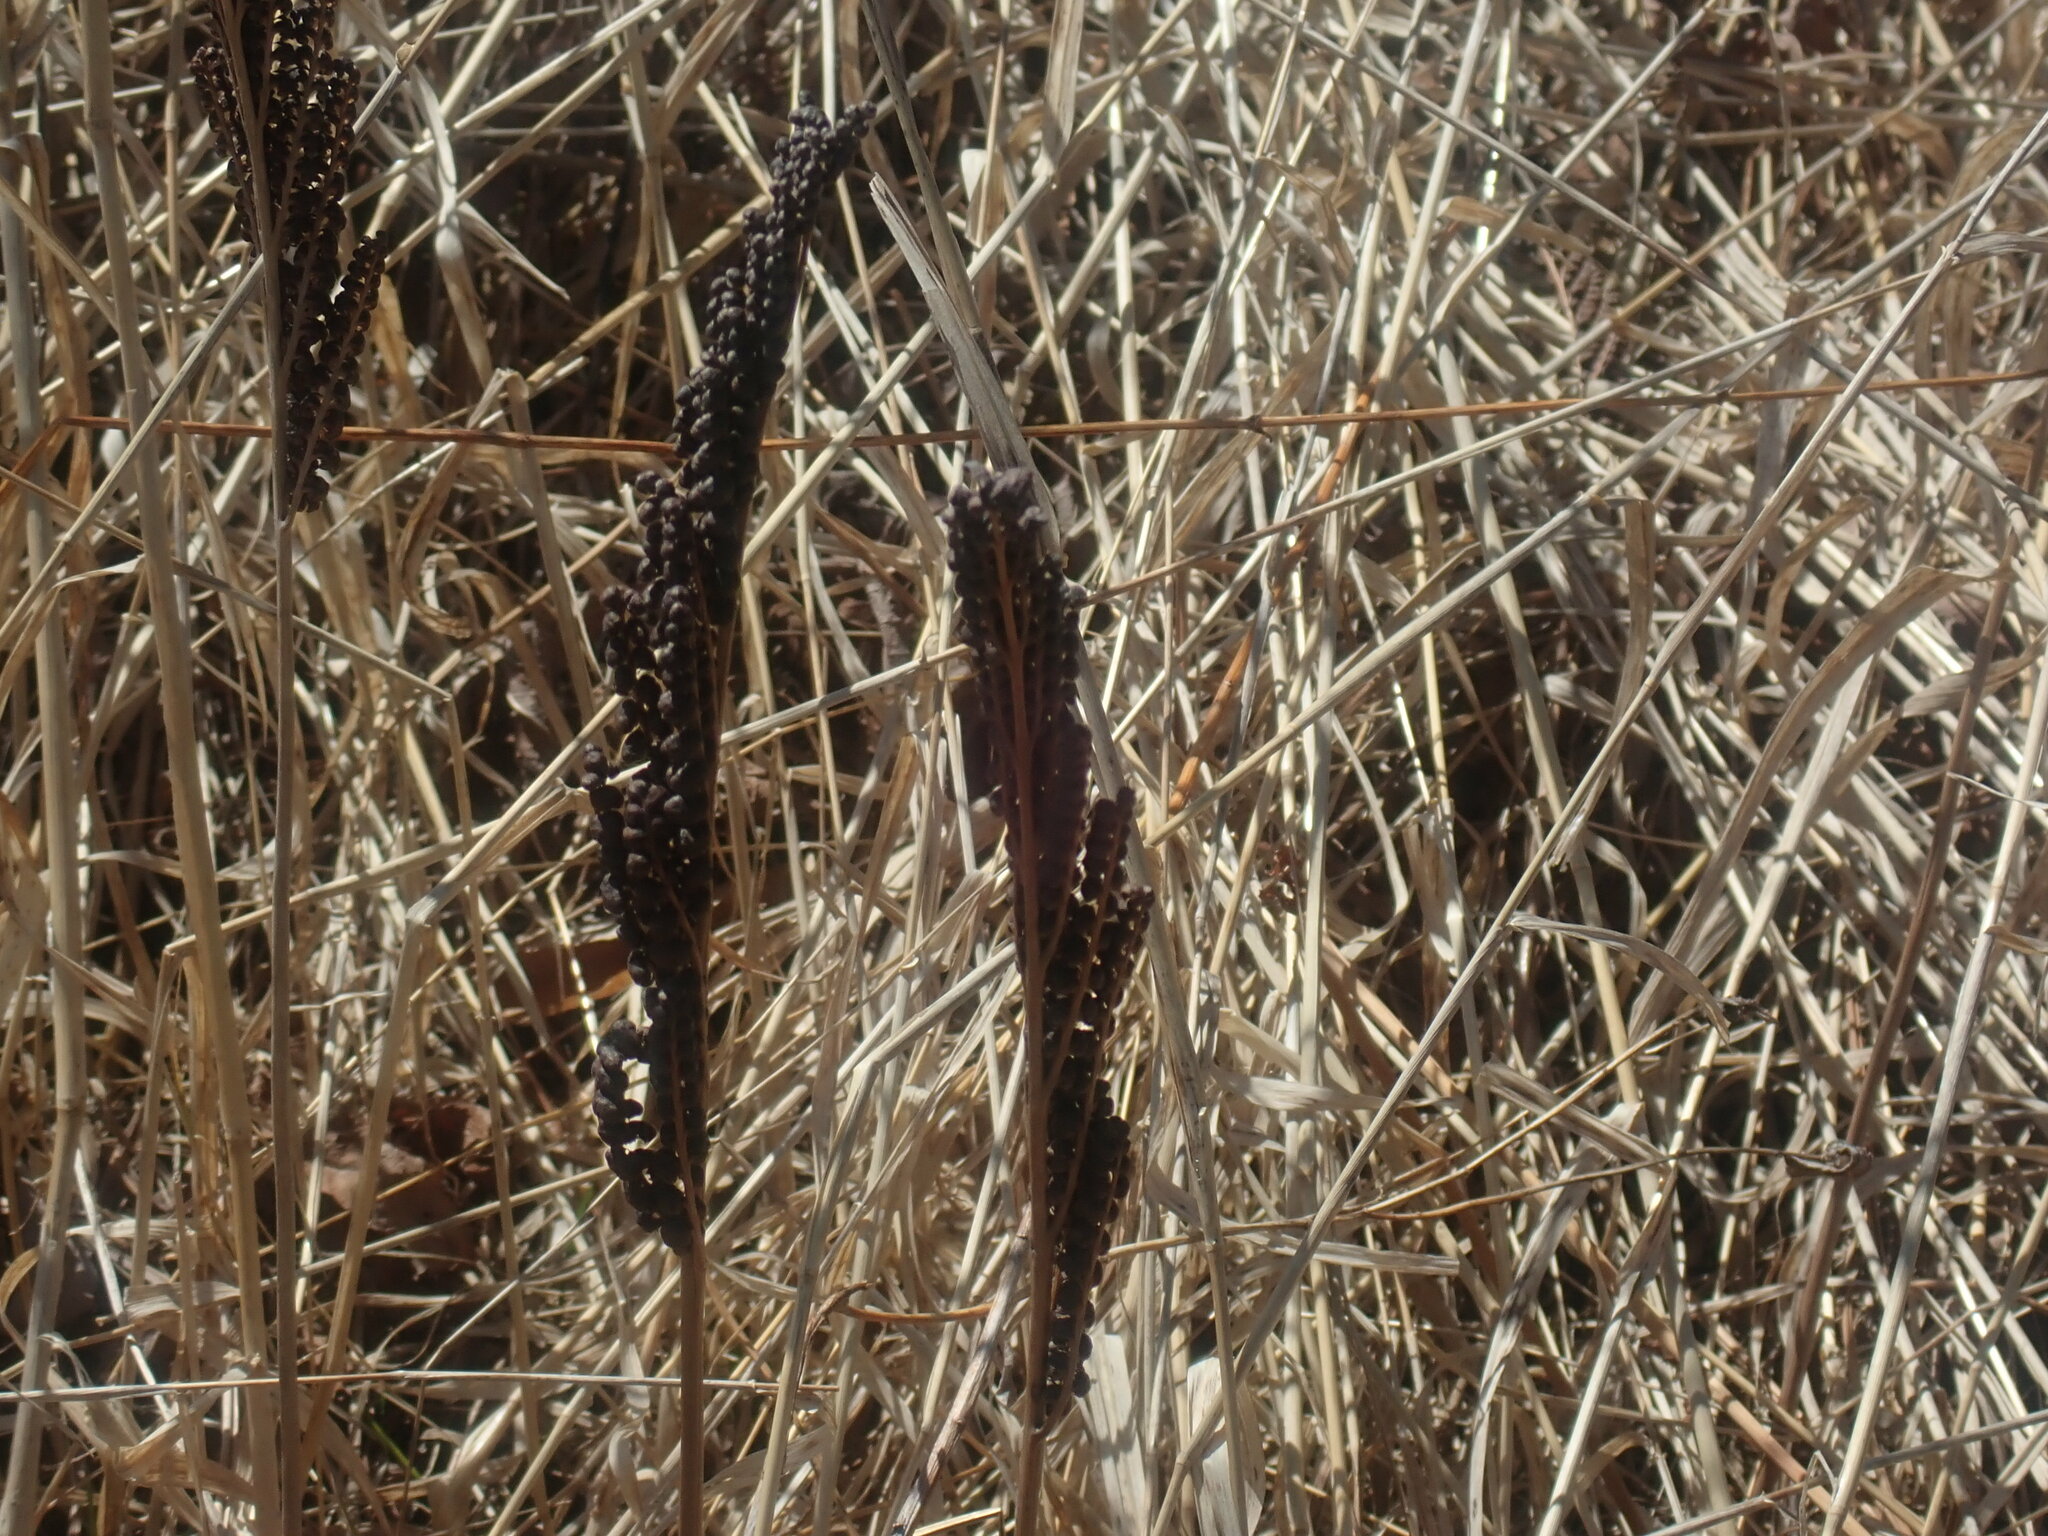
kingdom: Plantae
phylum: Tracheophyta
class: Polypodiopsida
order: Polypodiales
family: Onocleaceae
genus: Onoclea
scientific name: Onoclea sensibilis
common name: Sensitive fern
